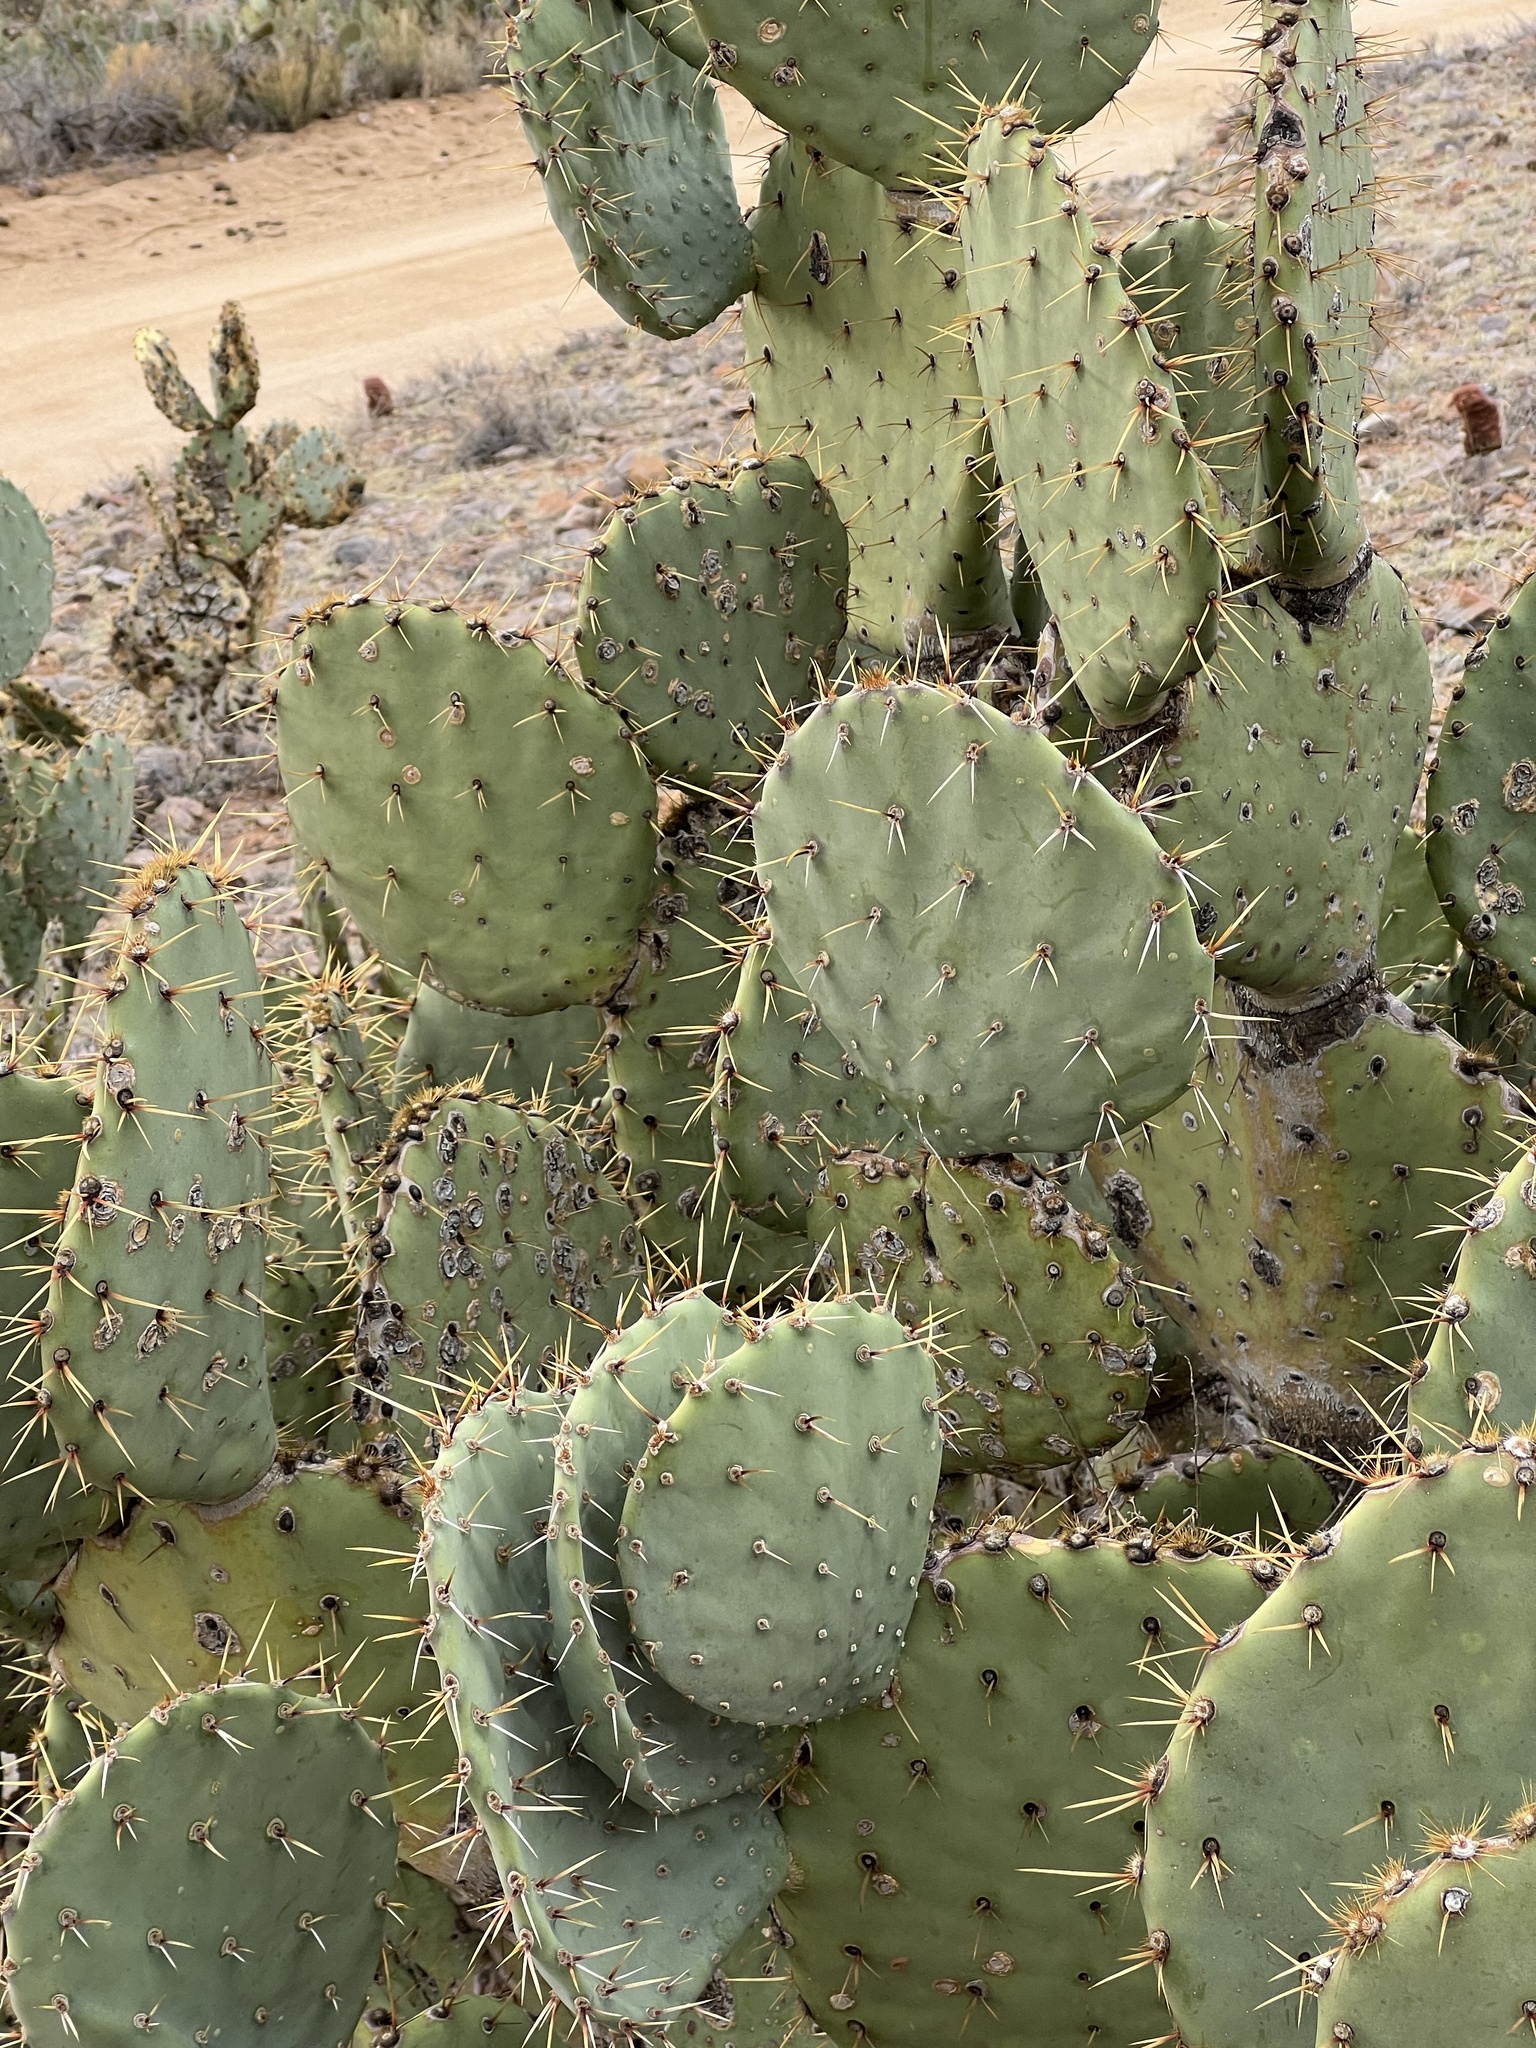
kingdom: Plantae
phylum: Tracheophyta
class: Magnoliopsida
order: Caryophyllales
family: Cactaceae
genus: Opuntia
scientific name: Opuntia engelmannii
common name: Cactus-apple
